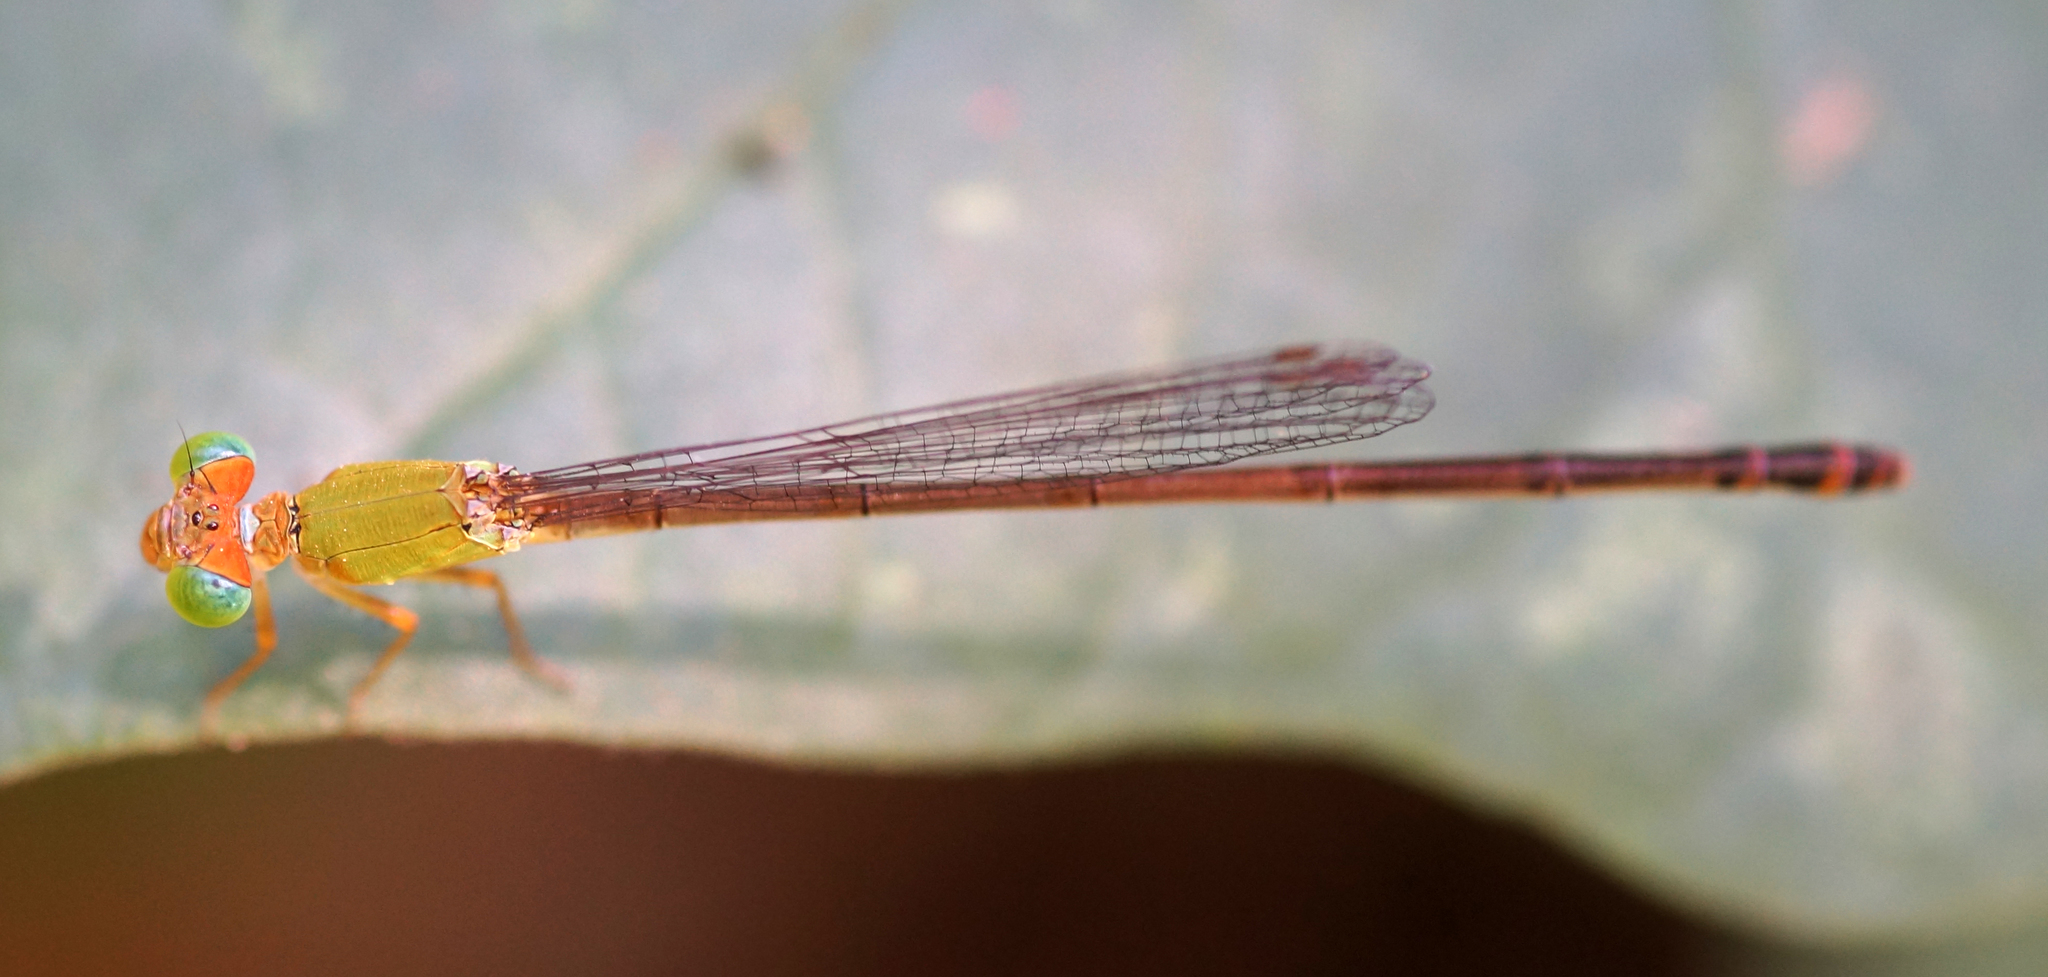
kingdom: Animalia
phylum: Arthropoda
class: Insecta
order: Odonata
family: Coenagrionidae
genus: Ceriagrion
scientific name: Ceriagrion cerinorubellum
